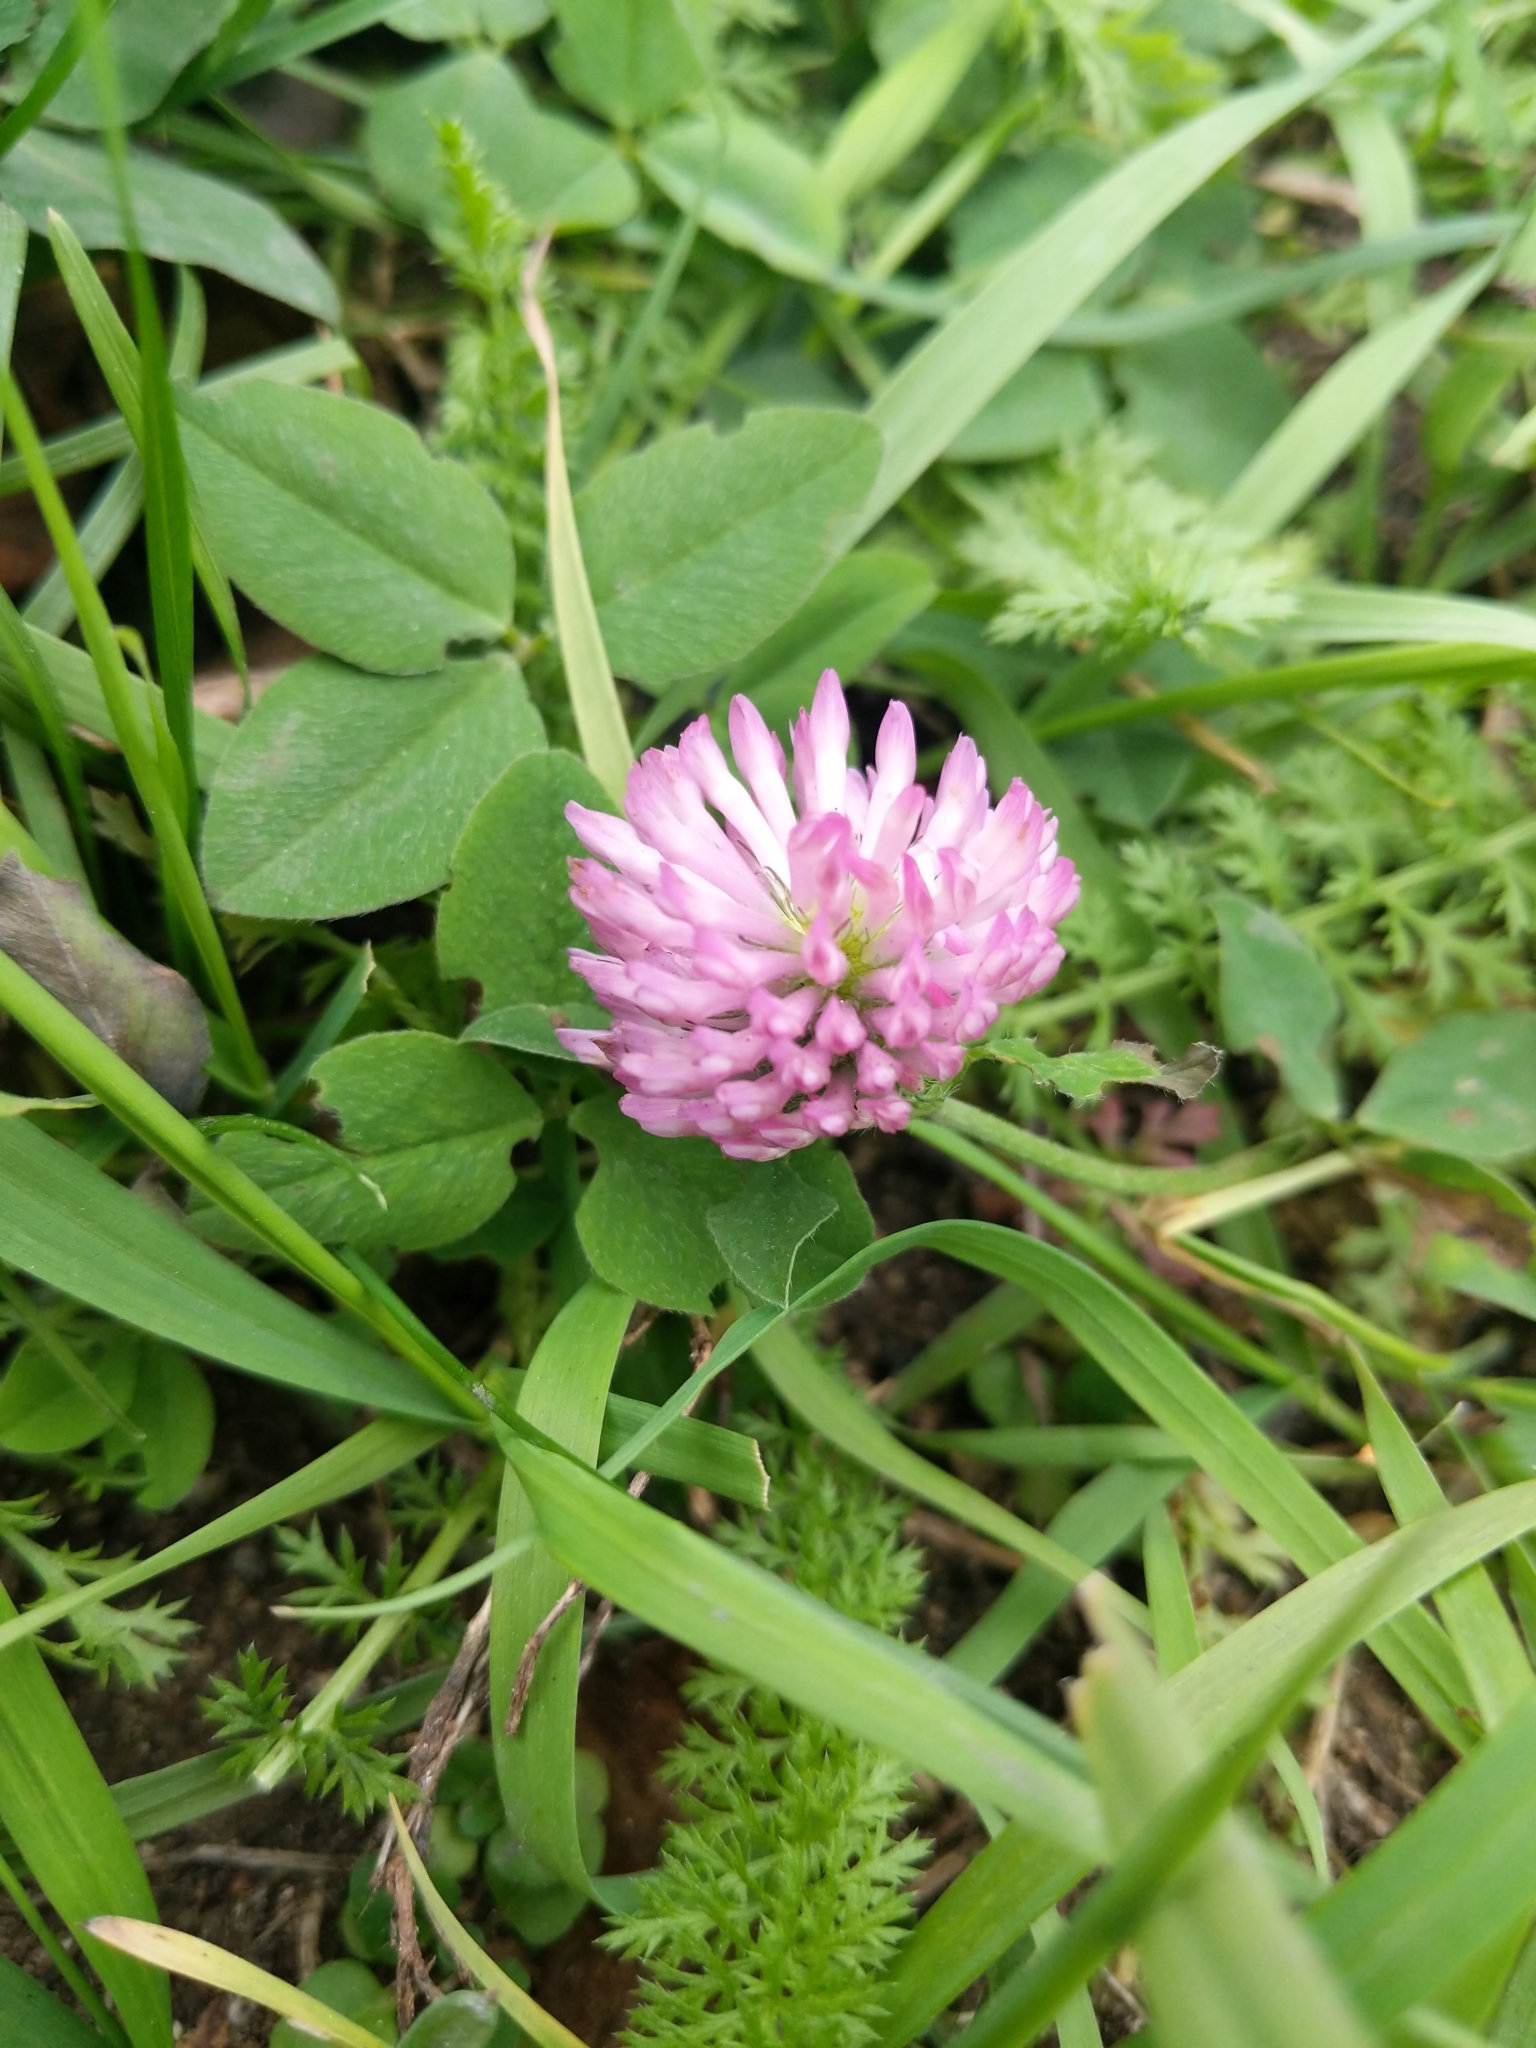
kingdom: Plantae
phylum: Tracheophyta
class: Magnoliopsida
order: Fabales
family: Fabaceae
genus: Trifolium
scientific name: Trifolium pratense
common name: Red clover
